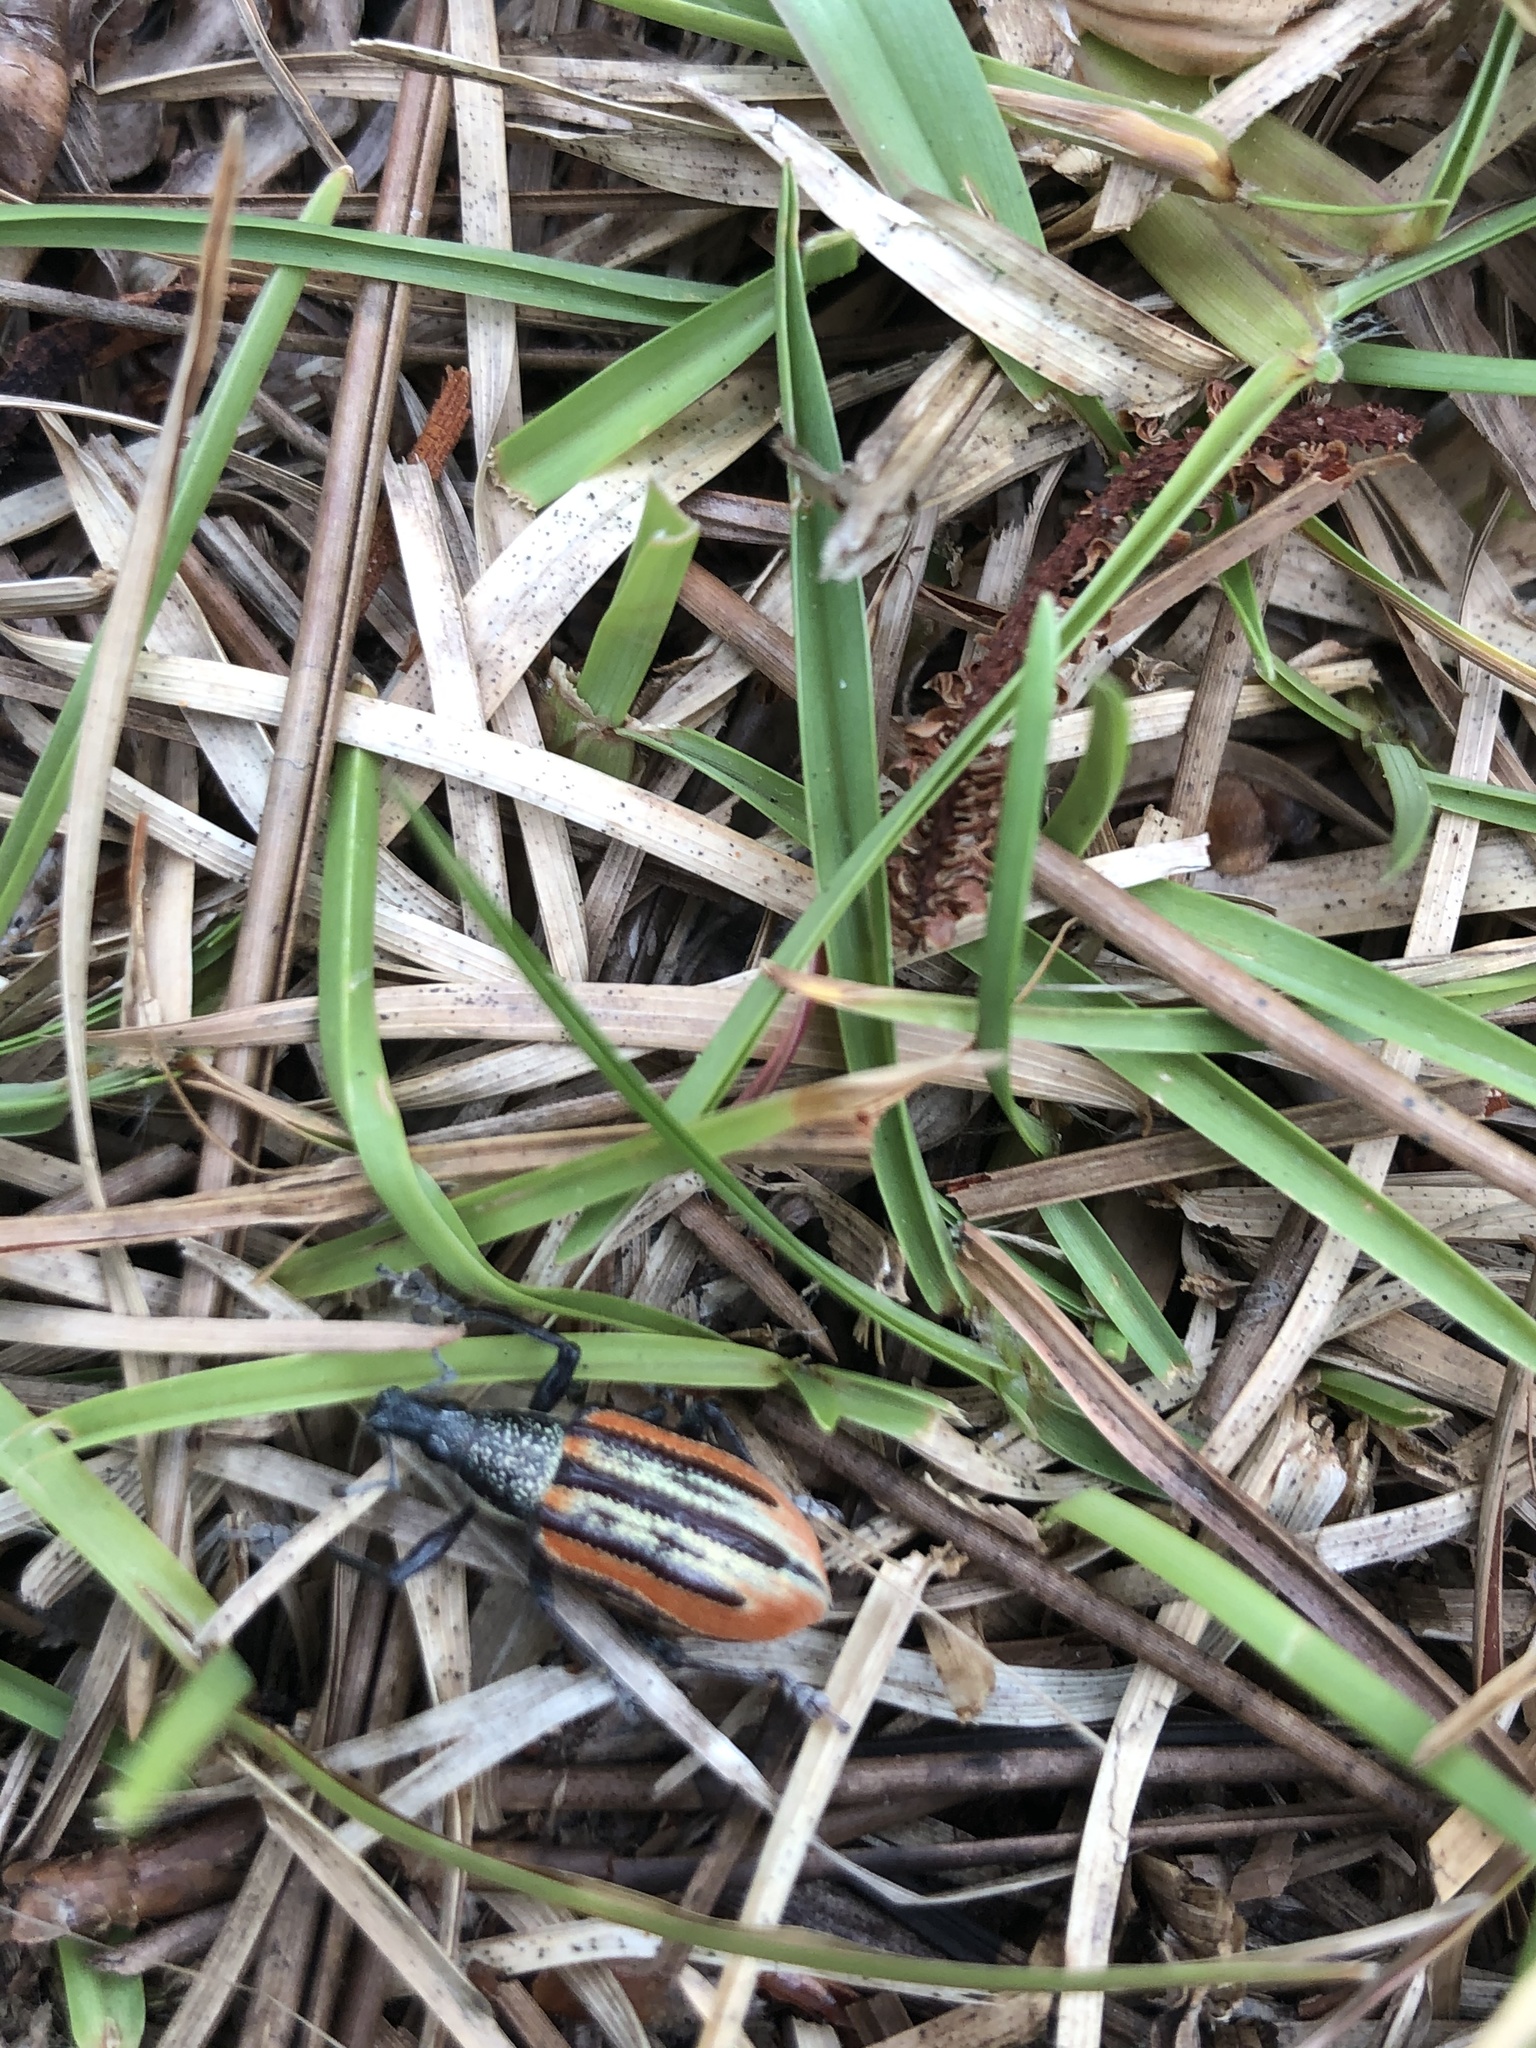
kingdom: Animalia
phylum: Arthropoda
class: Insecta
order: Coleoptera
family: Curculionidae
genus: Diaprepes
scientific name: Diaprepes abbreviatus
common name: Root weevil
